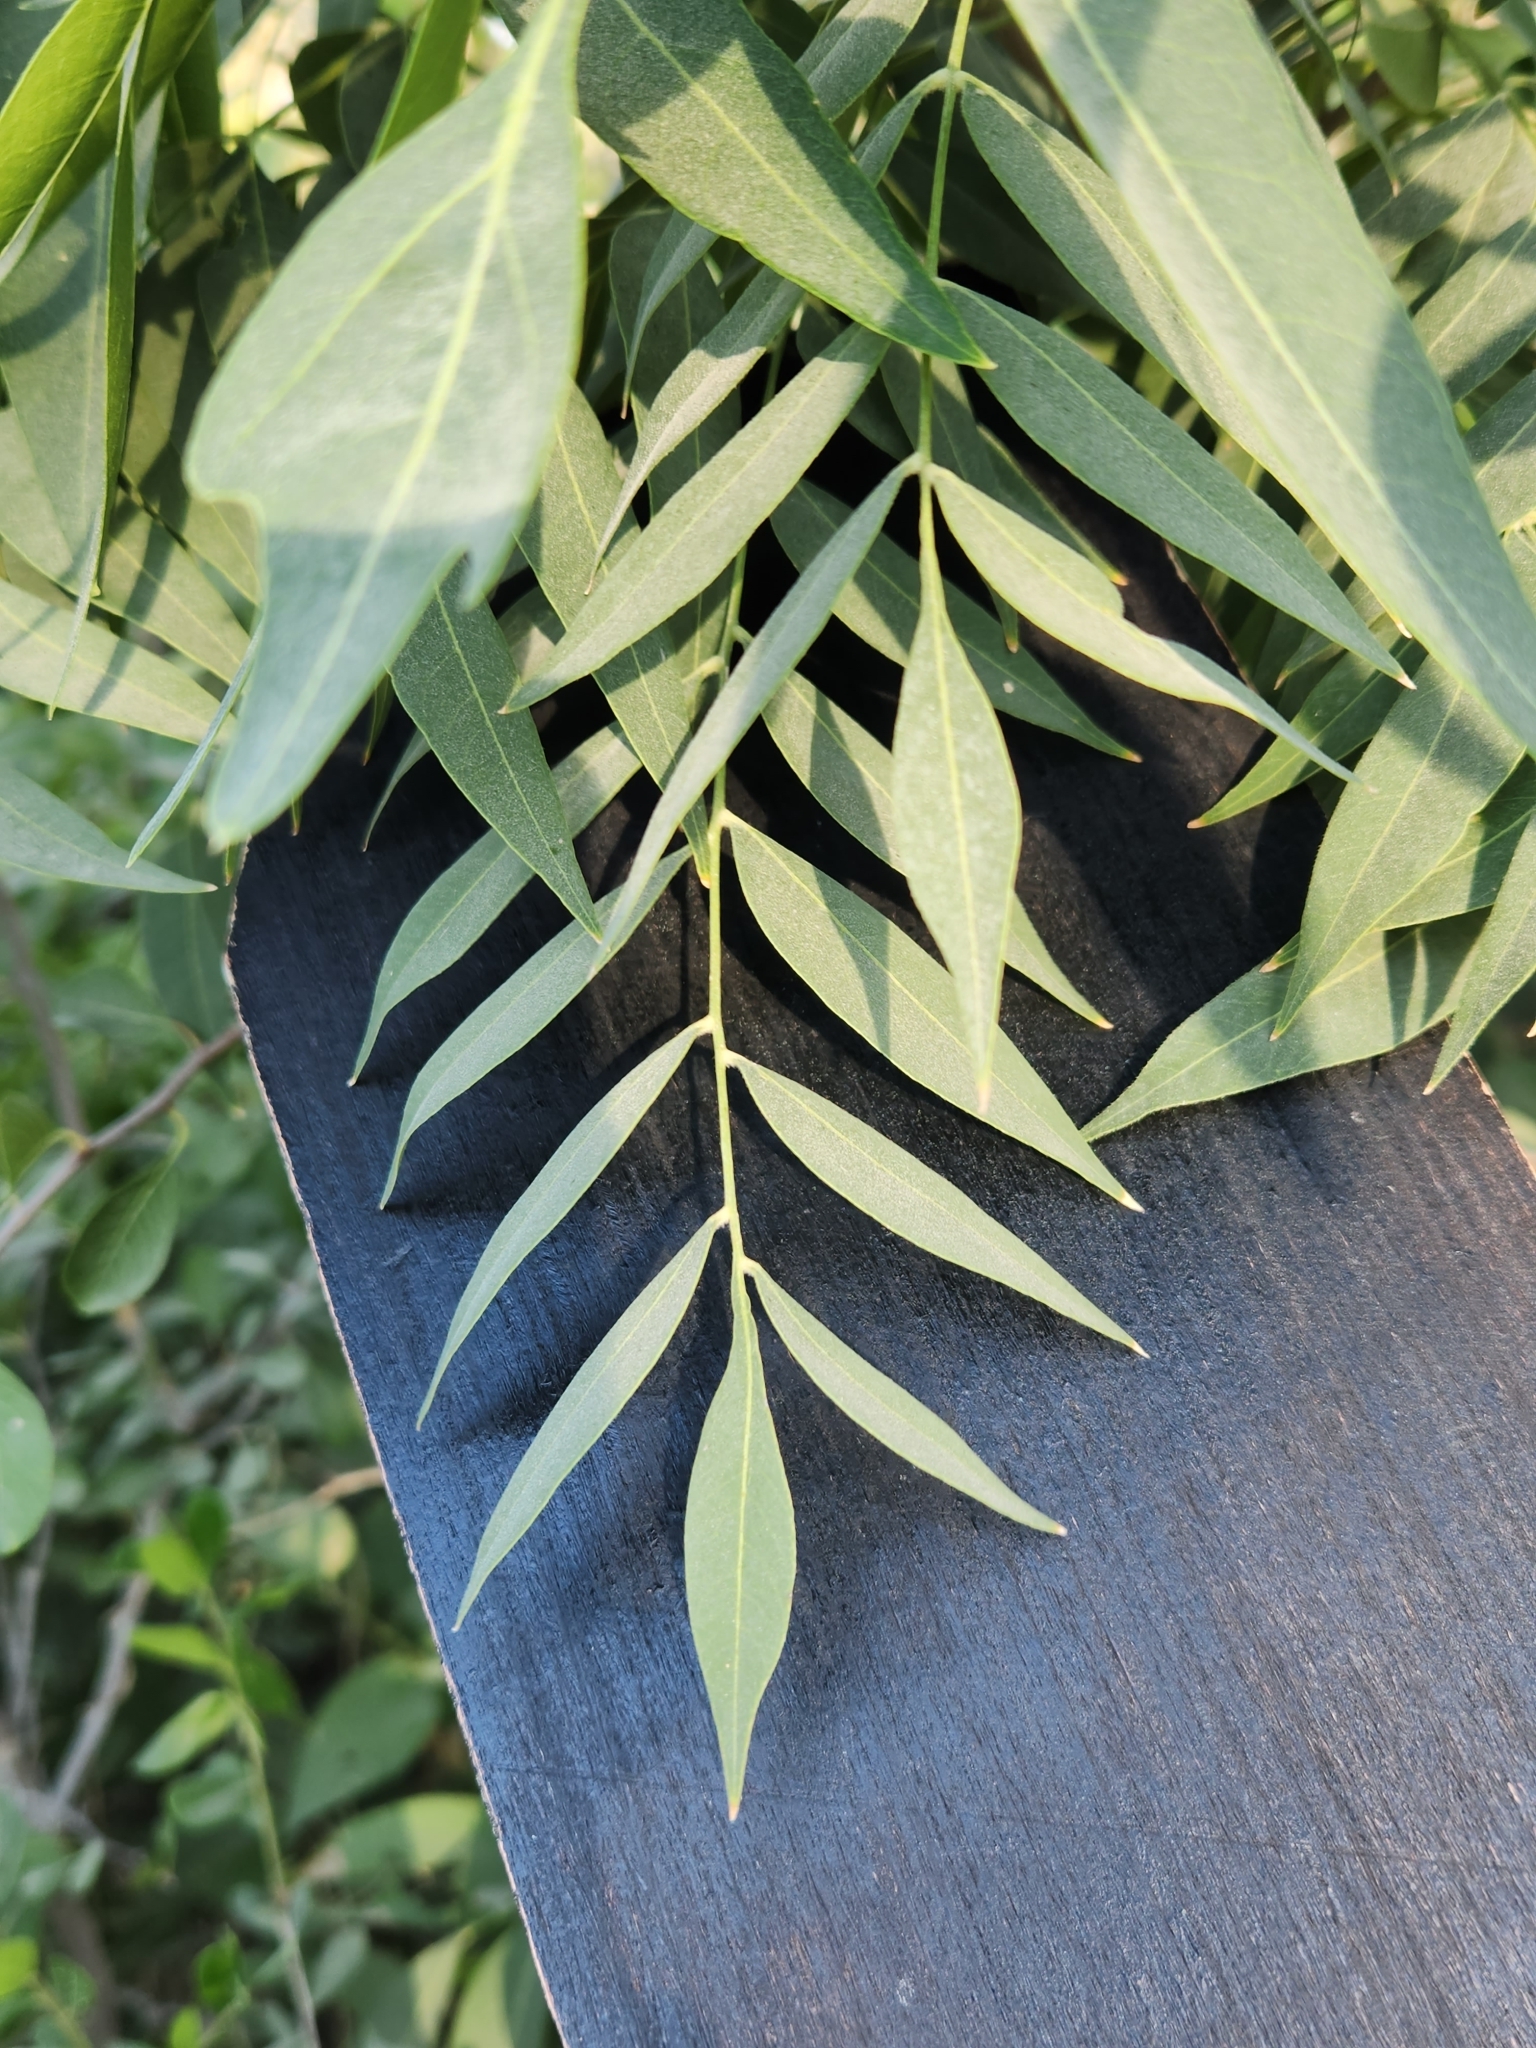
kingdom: Plantae
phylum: Tracheophyta
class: Magnoliopsida
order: Sapindales
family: Sapindaceae
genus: Sapindus
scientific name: Sapindus drummondii
